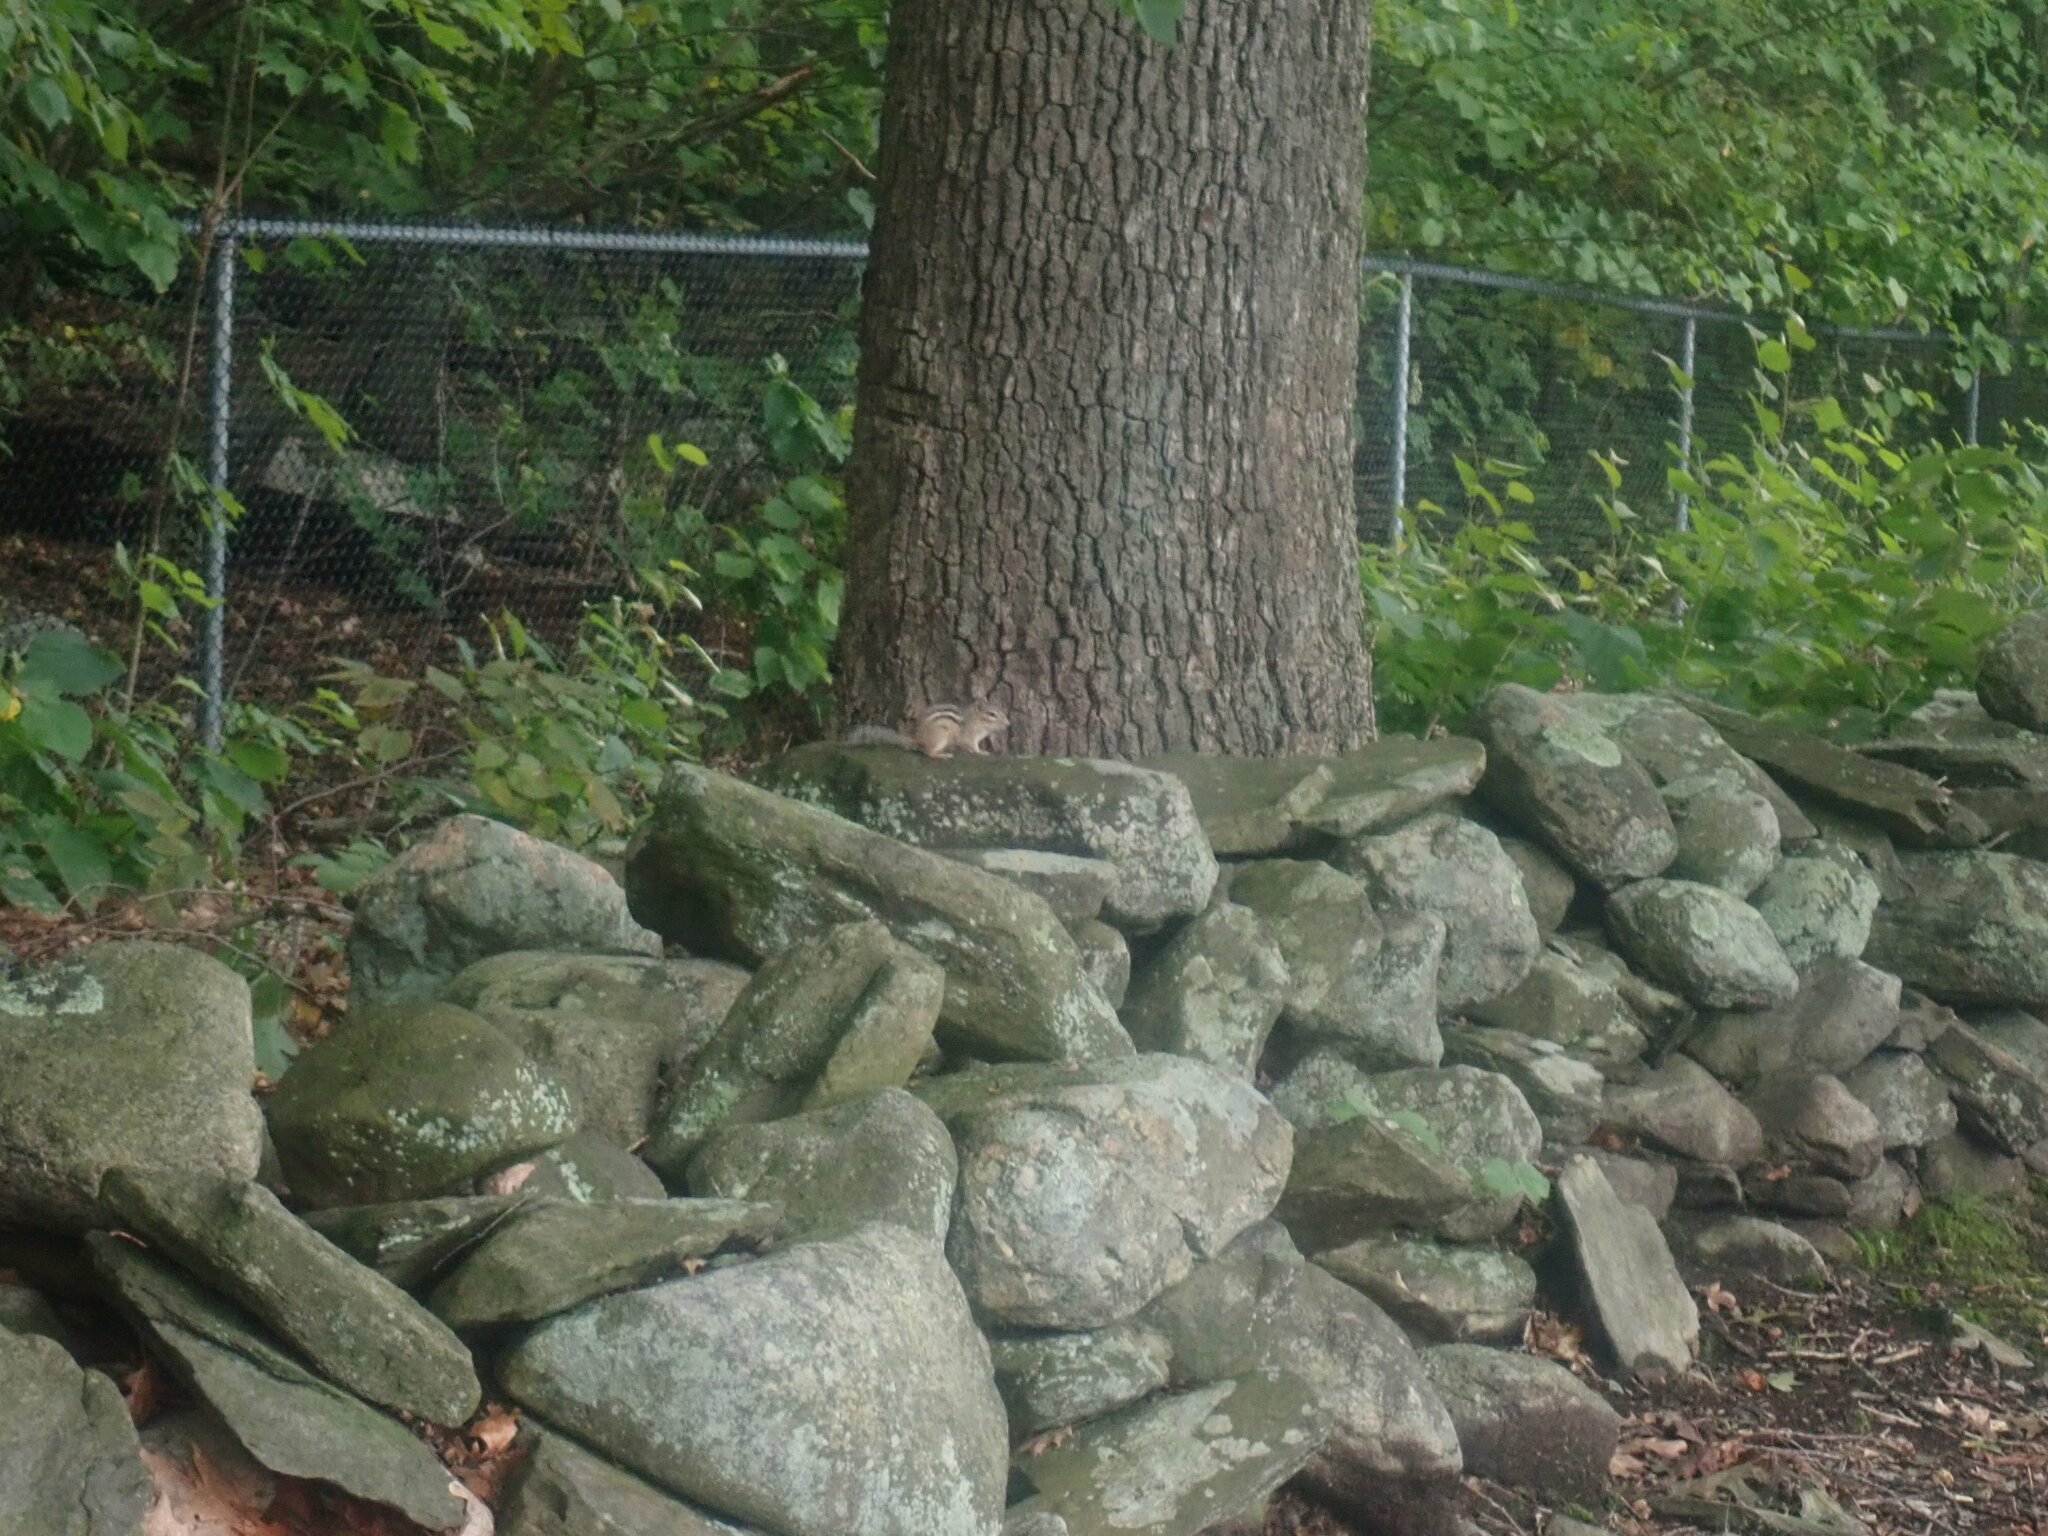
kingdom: Animalia
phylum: Chordata
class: Mammalia
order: Rodentia
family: Sciuridae
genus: Tamias
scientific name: Tamias striatus
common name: Eastern chipmunk
